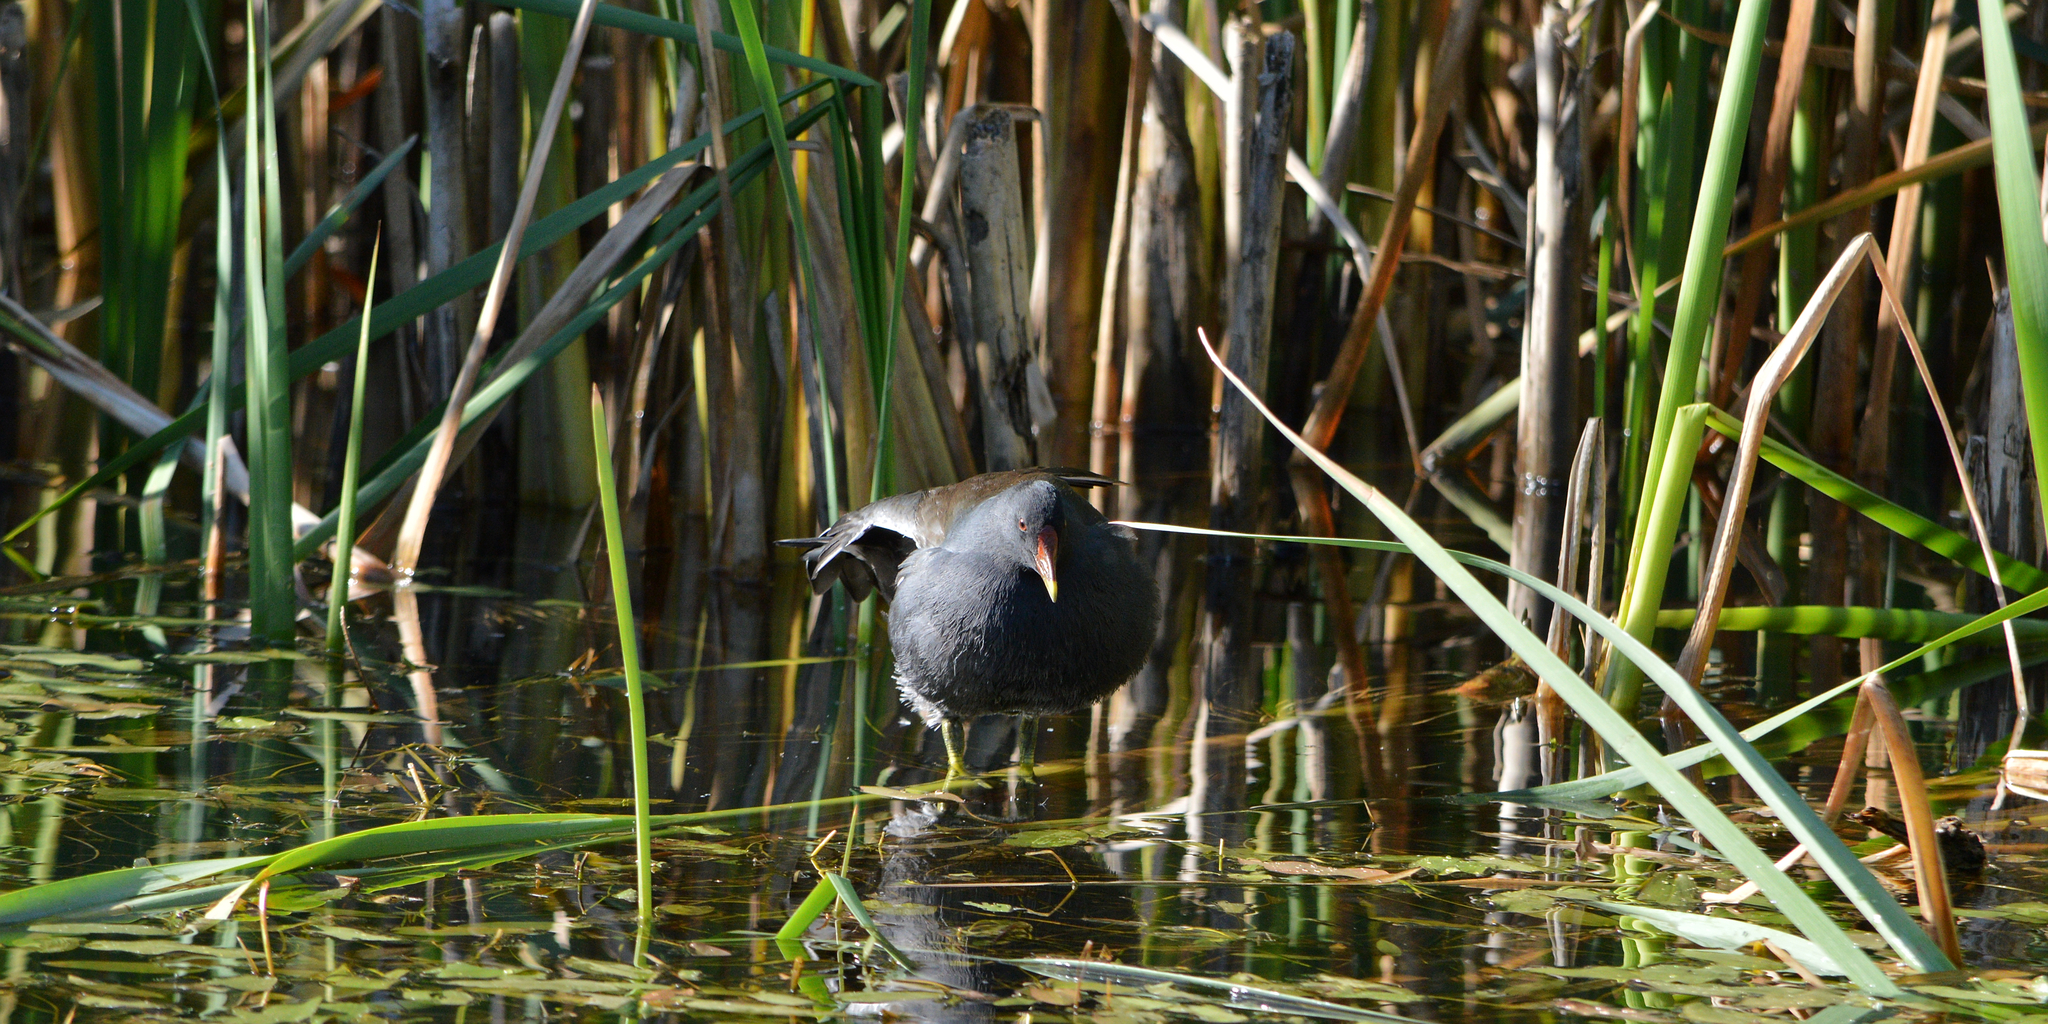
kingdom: Animalia
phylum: Chordata
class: Aves
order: Gruiformes
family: Rallidae
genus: Gallinula
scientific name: Gallinula chloropus
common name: Common moorhen
